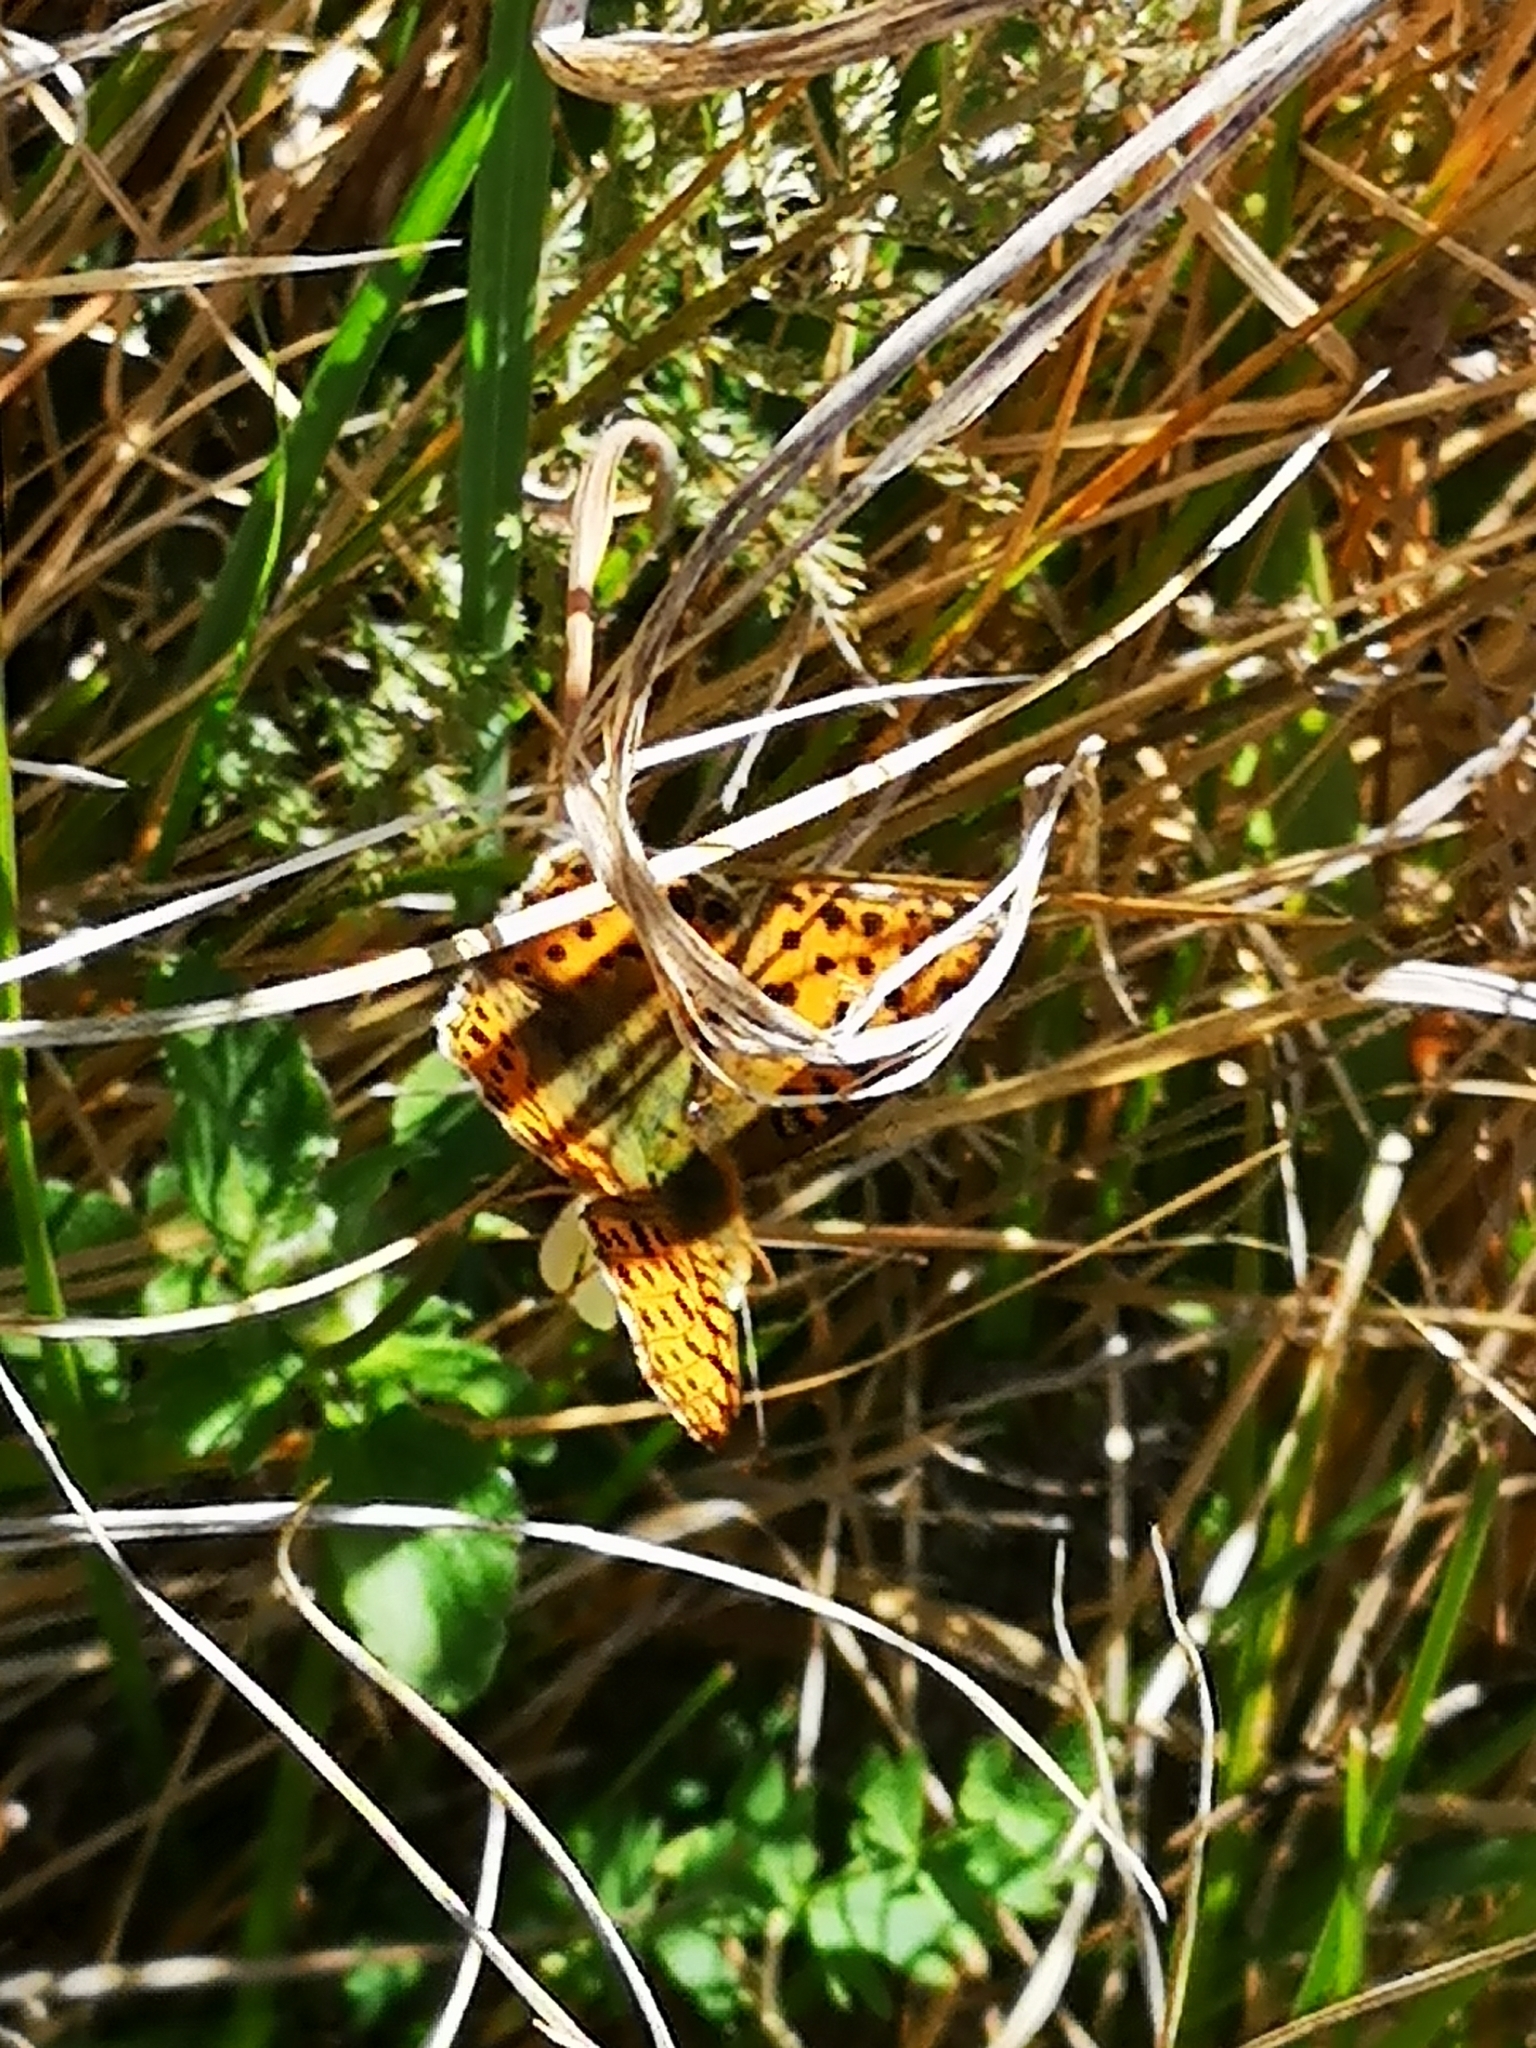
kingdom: Animalia
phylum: Arthropoda
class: Insecta
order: Lepidoptera
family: Nymphalidae
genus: Issoria
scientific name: Issoria lathonia
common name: Queen of spain fritillary
